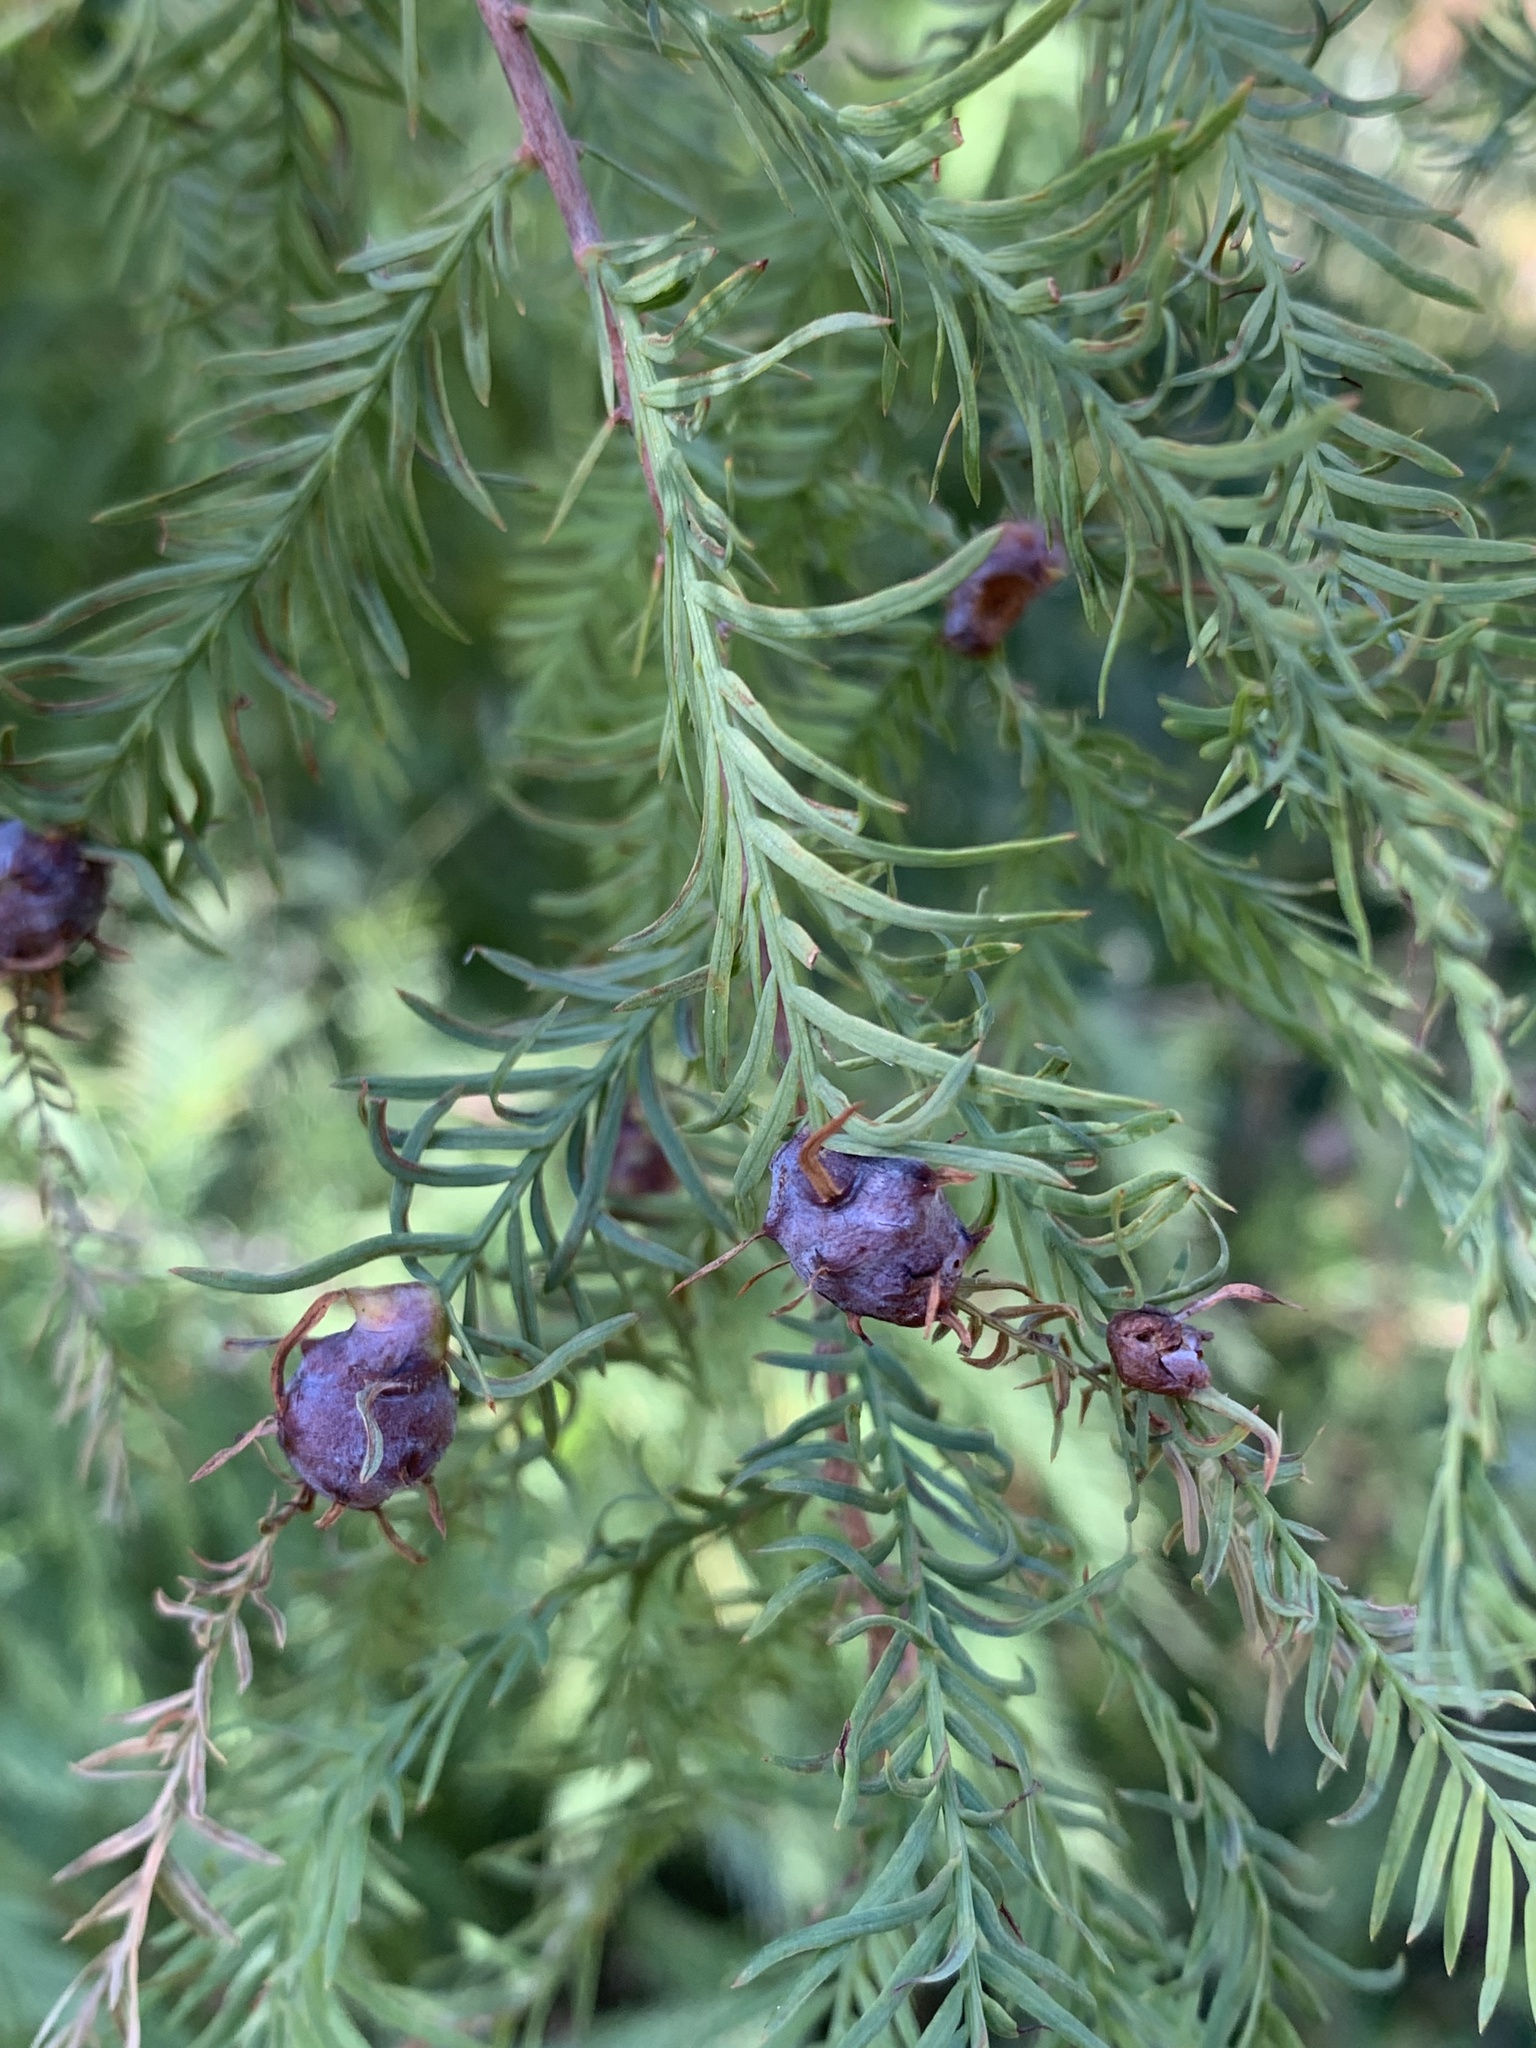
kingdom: Animalia
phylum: Arthropoda
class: Insecta
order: Diptera
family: Cecidomyiidae
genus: Taxodiomyia
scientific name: Taxodiomyia cupressiananassa
